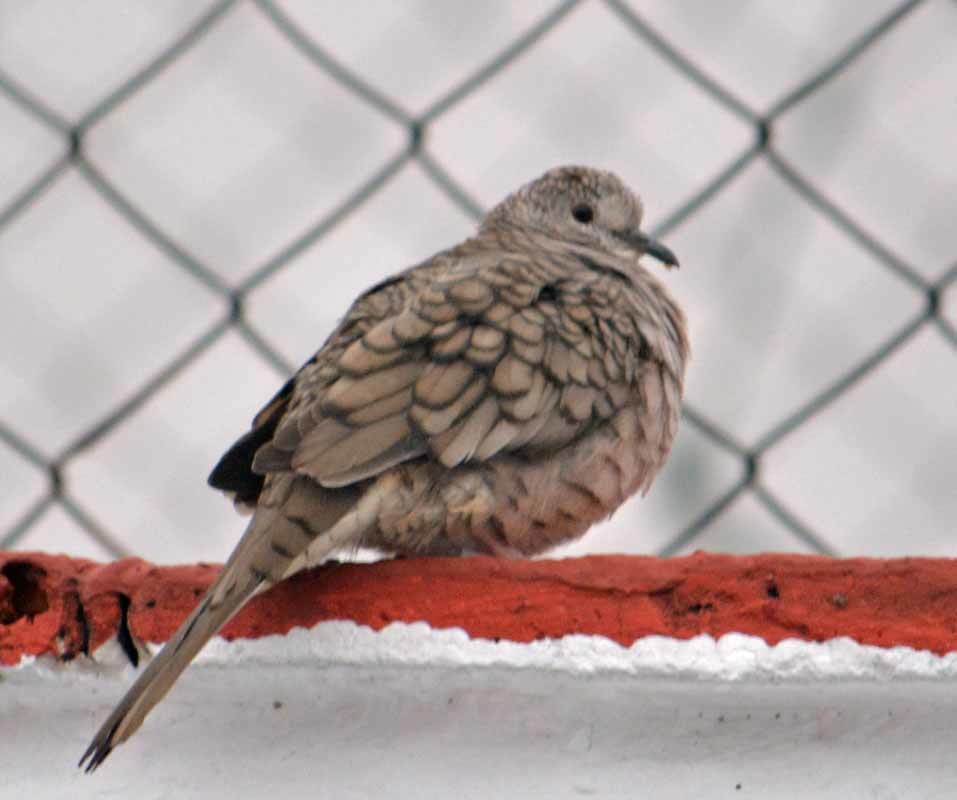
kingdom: Animalia
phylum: Chordata
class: Aves
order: Columbiformes
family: Columbidae
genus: Columbina
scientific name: Columbina inca
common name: Inca dove
